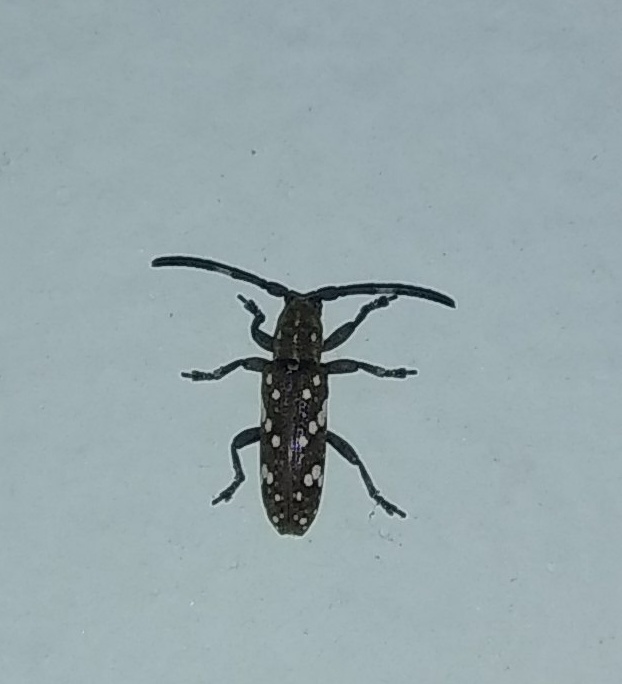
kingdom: Animalia
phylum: Arthropoda
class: Insecta
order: Coleoptera
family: Cerambycidae
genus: Apomecyna
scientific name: Apomecyna saltator
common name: Pointed gourd vine borer
